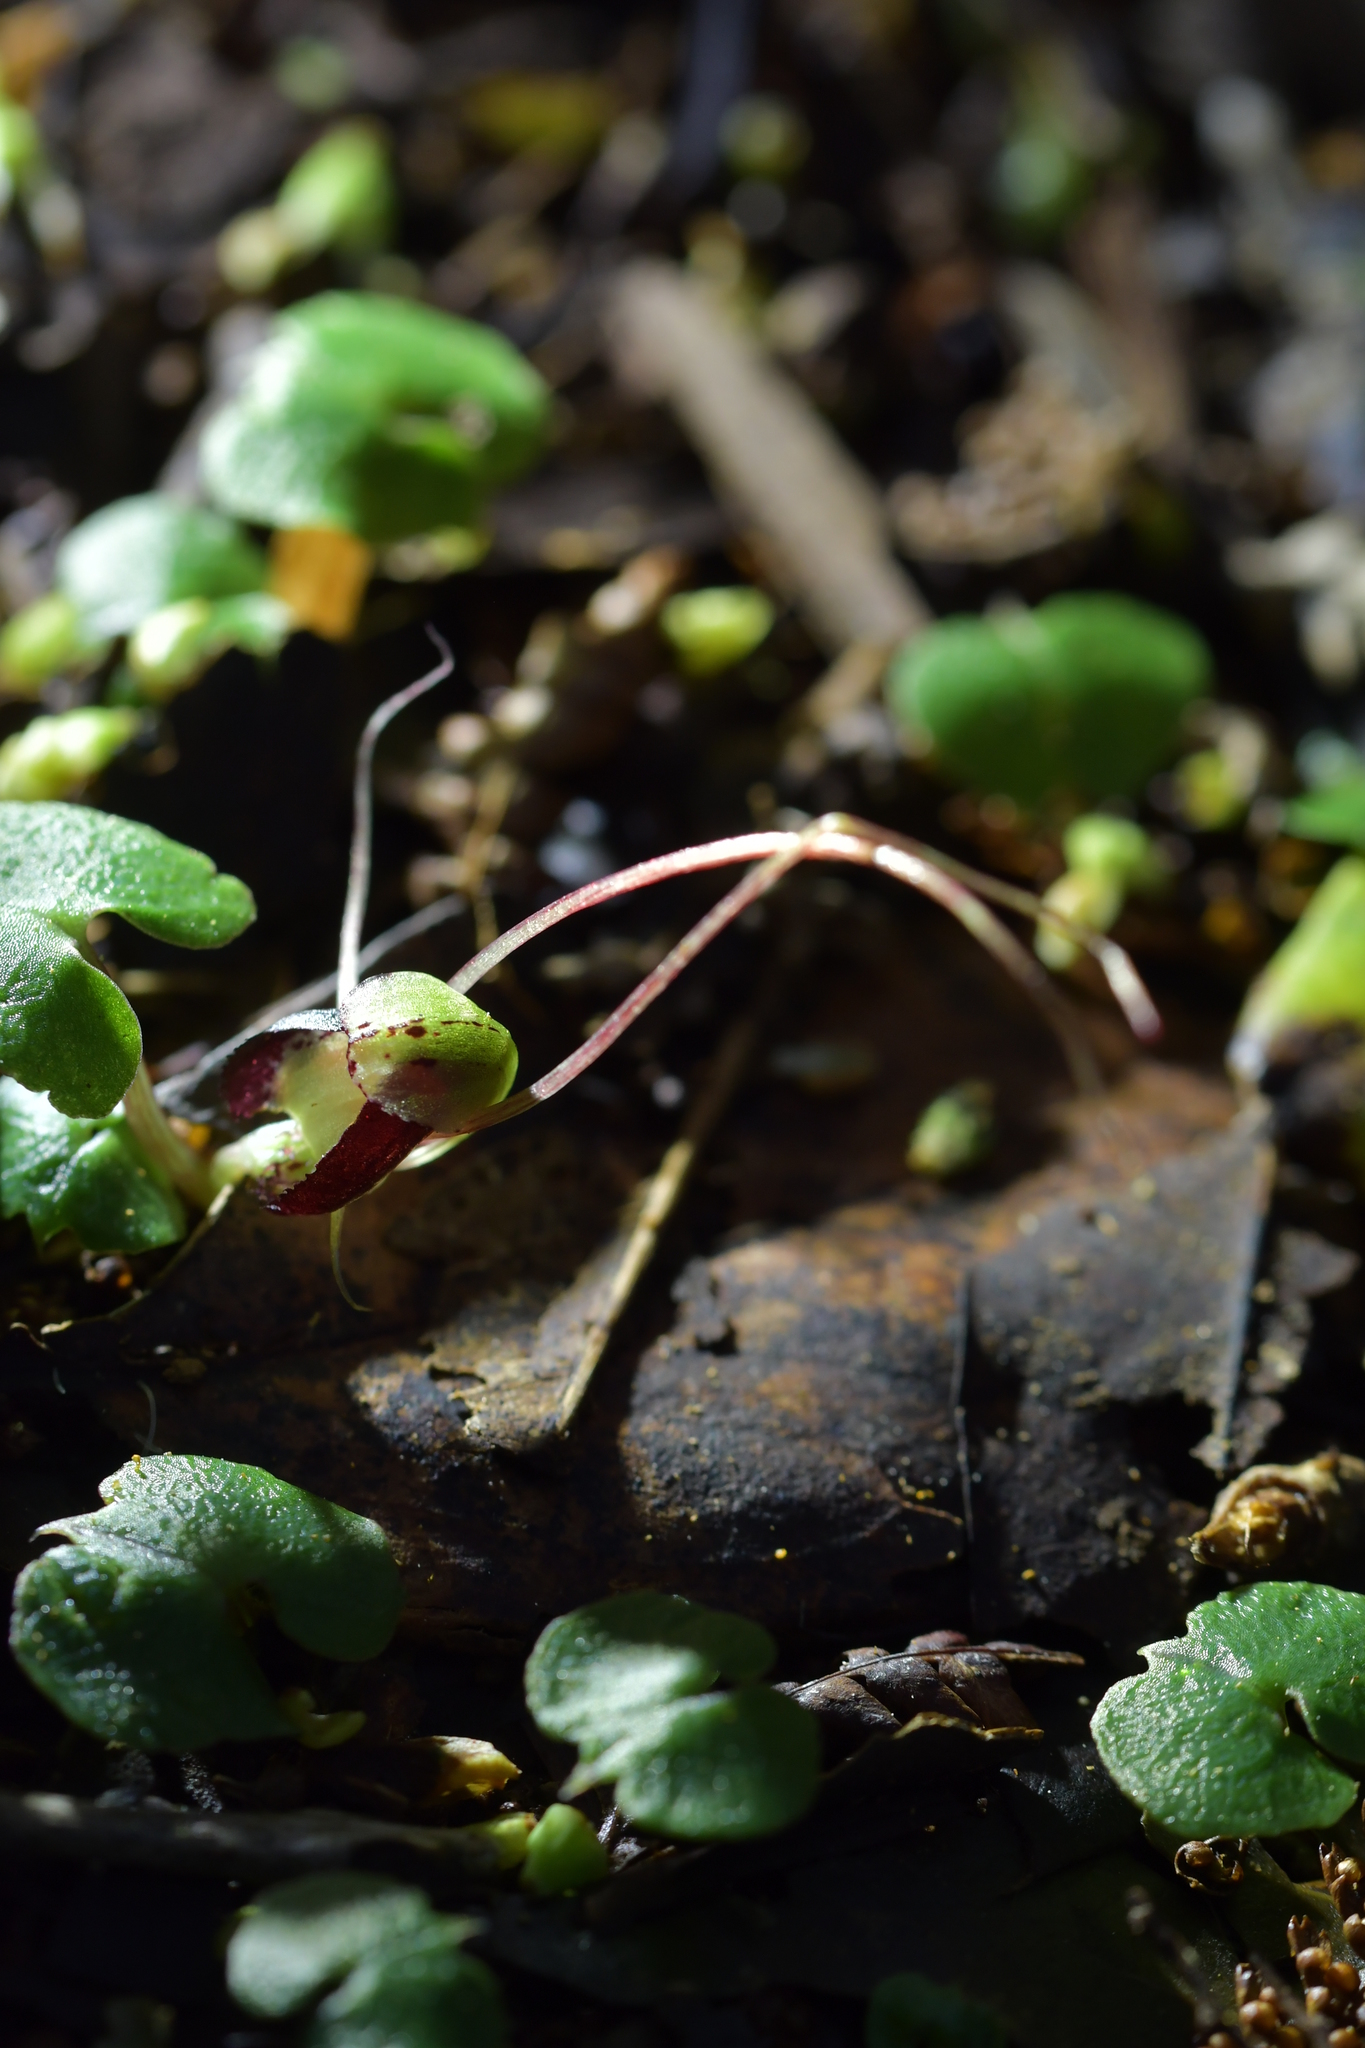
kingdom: Plantae
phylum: Tracheophyta
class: Liliopsida
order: Asparagales
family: Orchidaceae
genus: Corybas
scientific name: Corybas sanctigeorgianus
